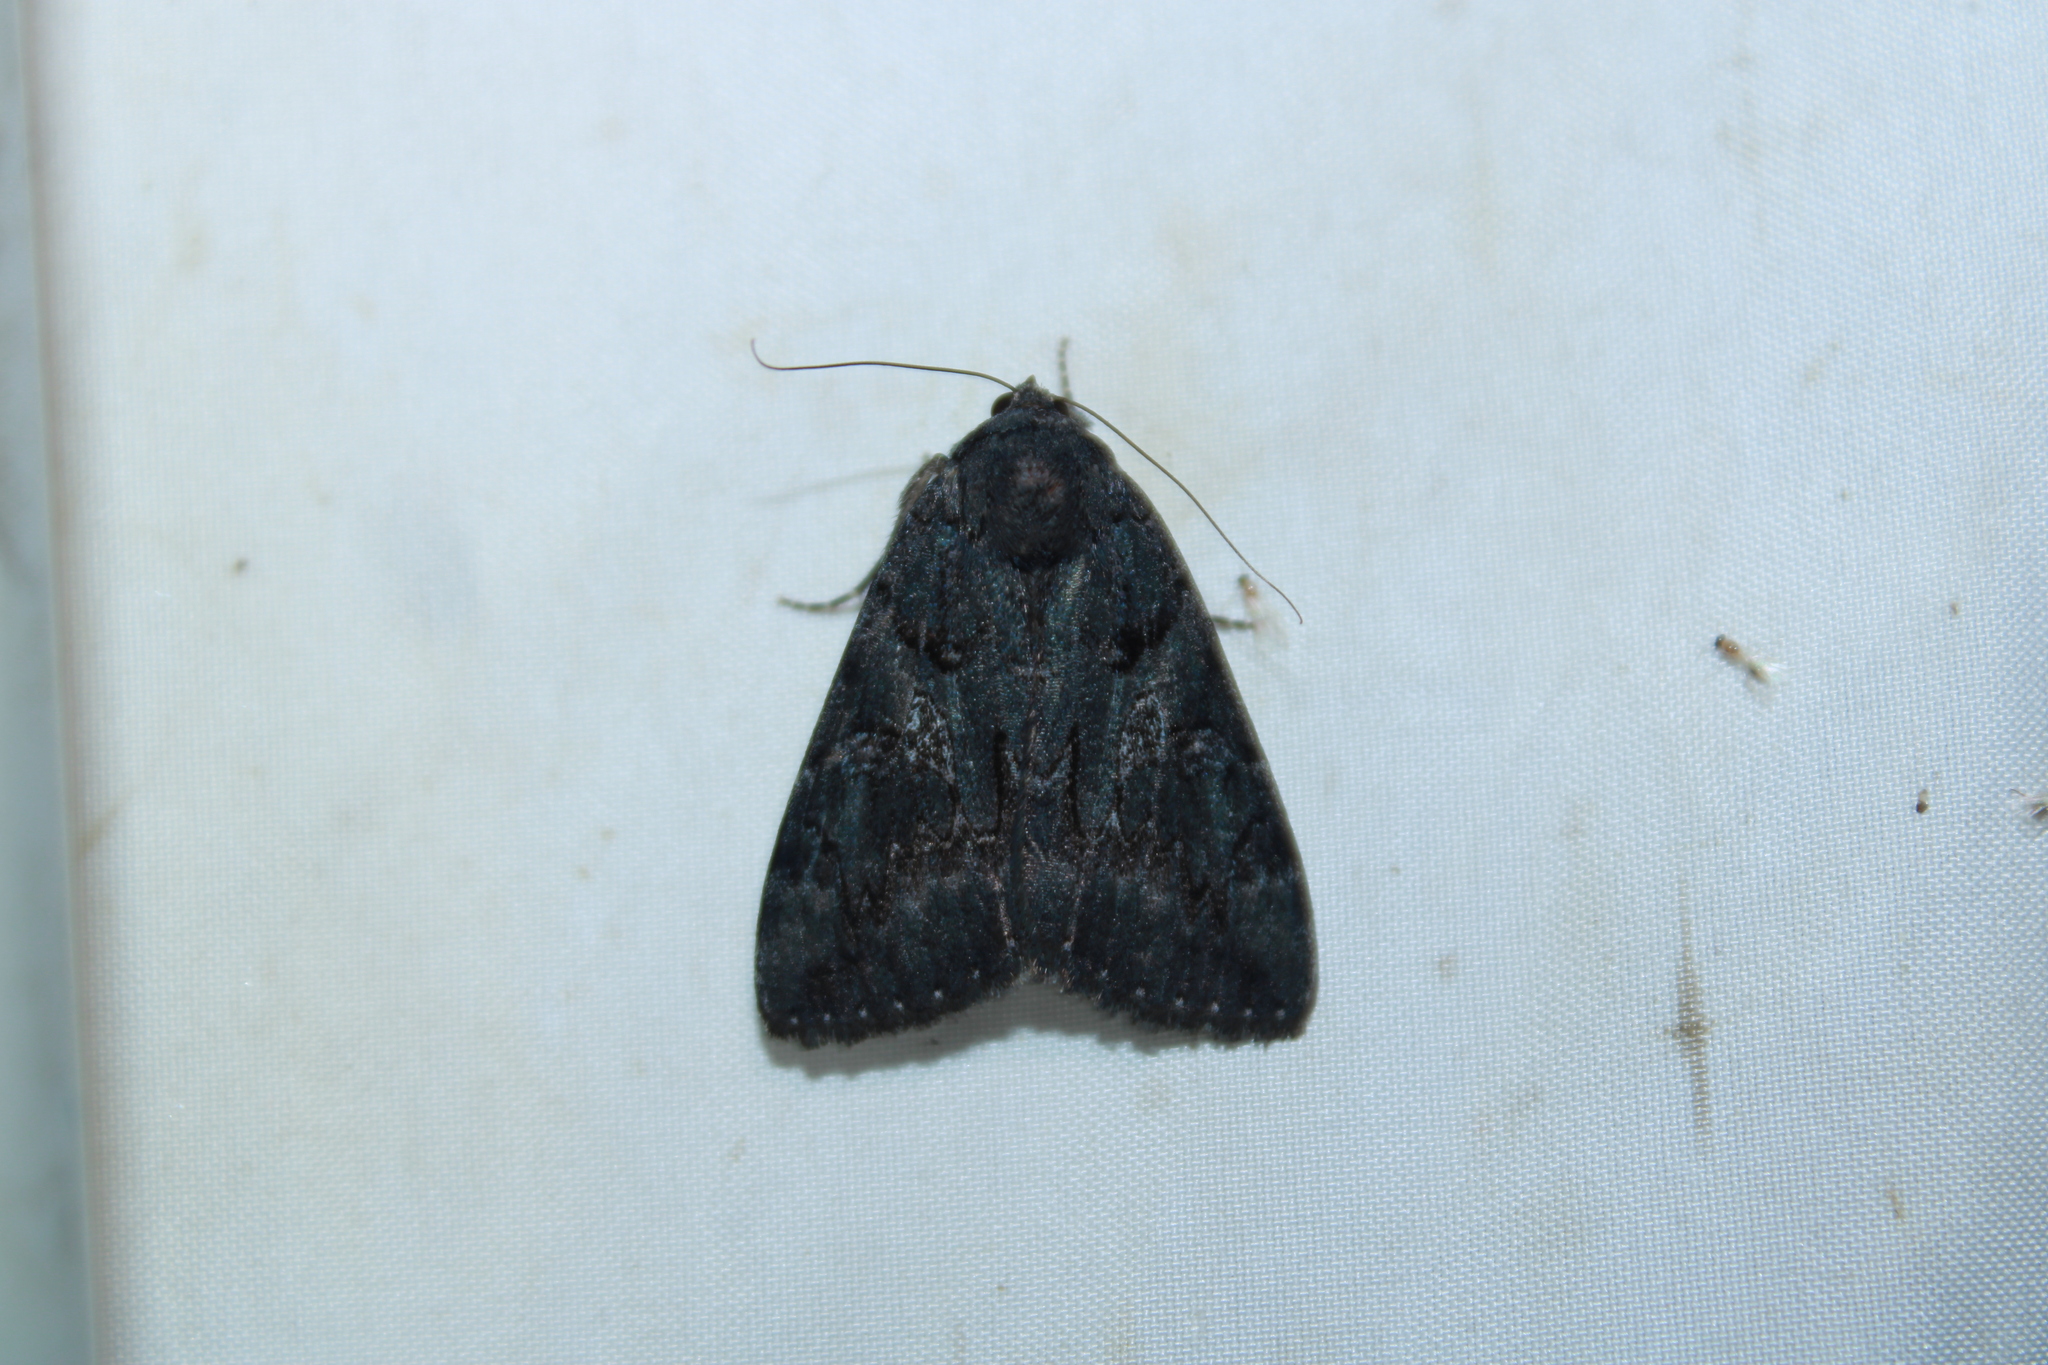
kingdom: Animalia
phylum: Arthropoda
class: Insecta
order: Lepidoptera
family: Erebidae
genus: Catocala
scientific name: Catocala antinympha
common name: Sweetfern underwing
